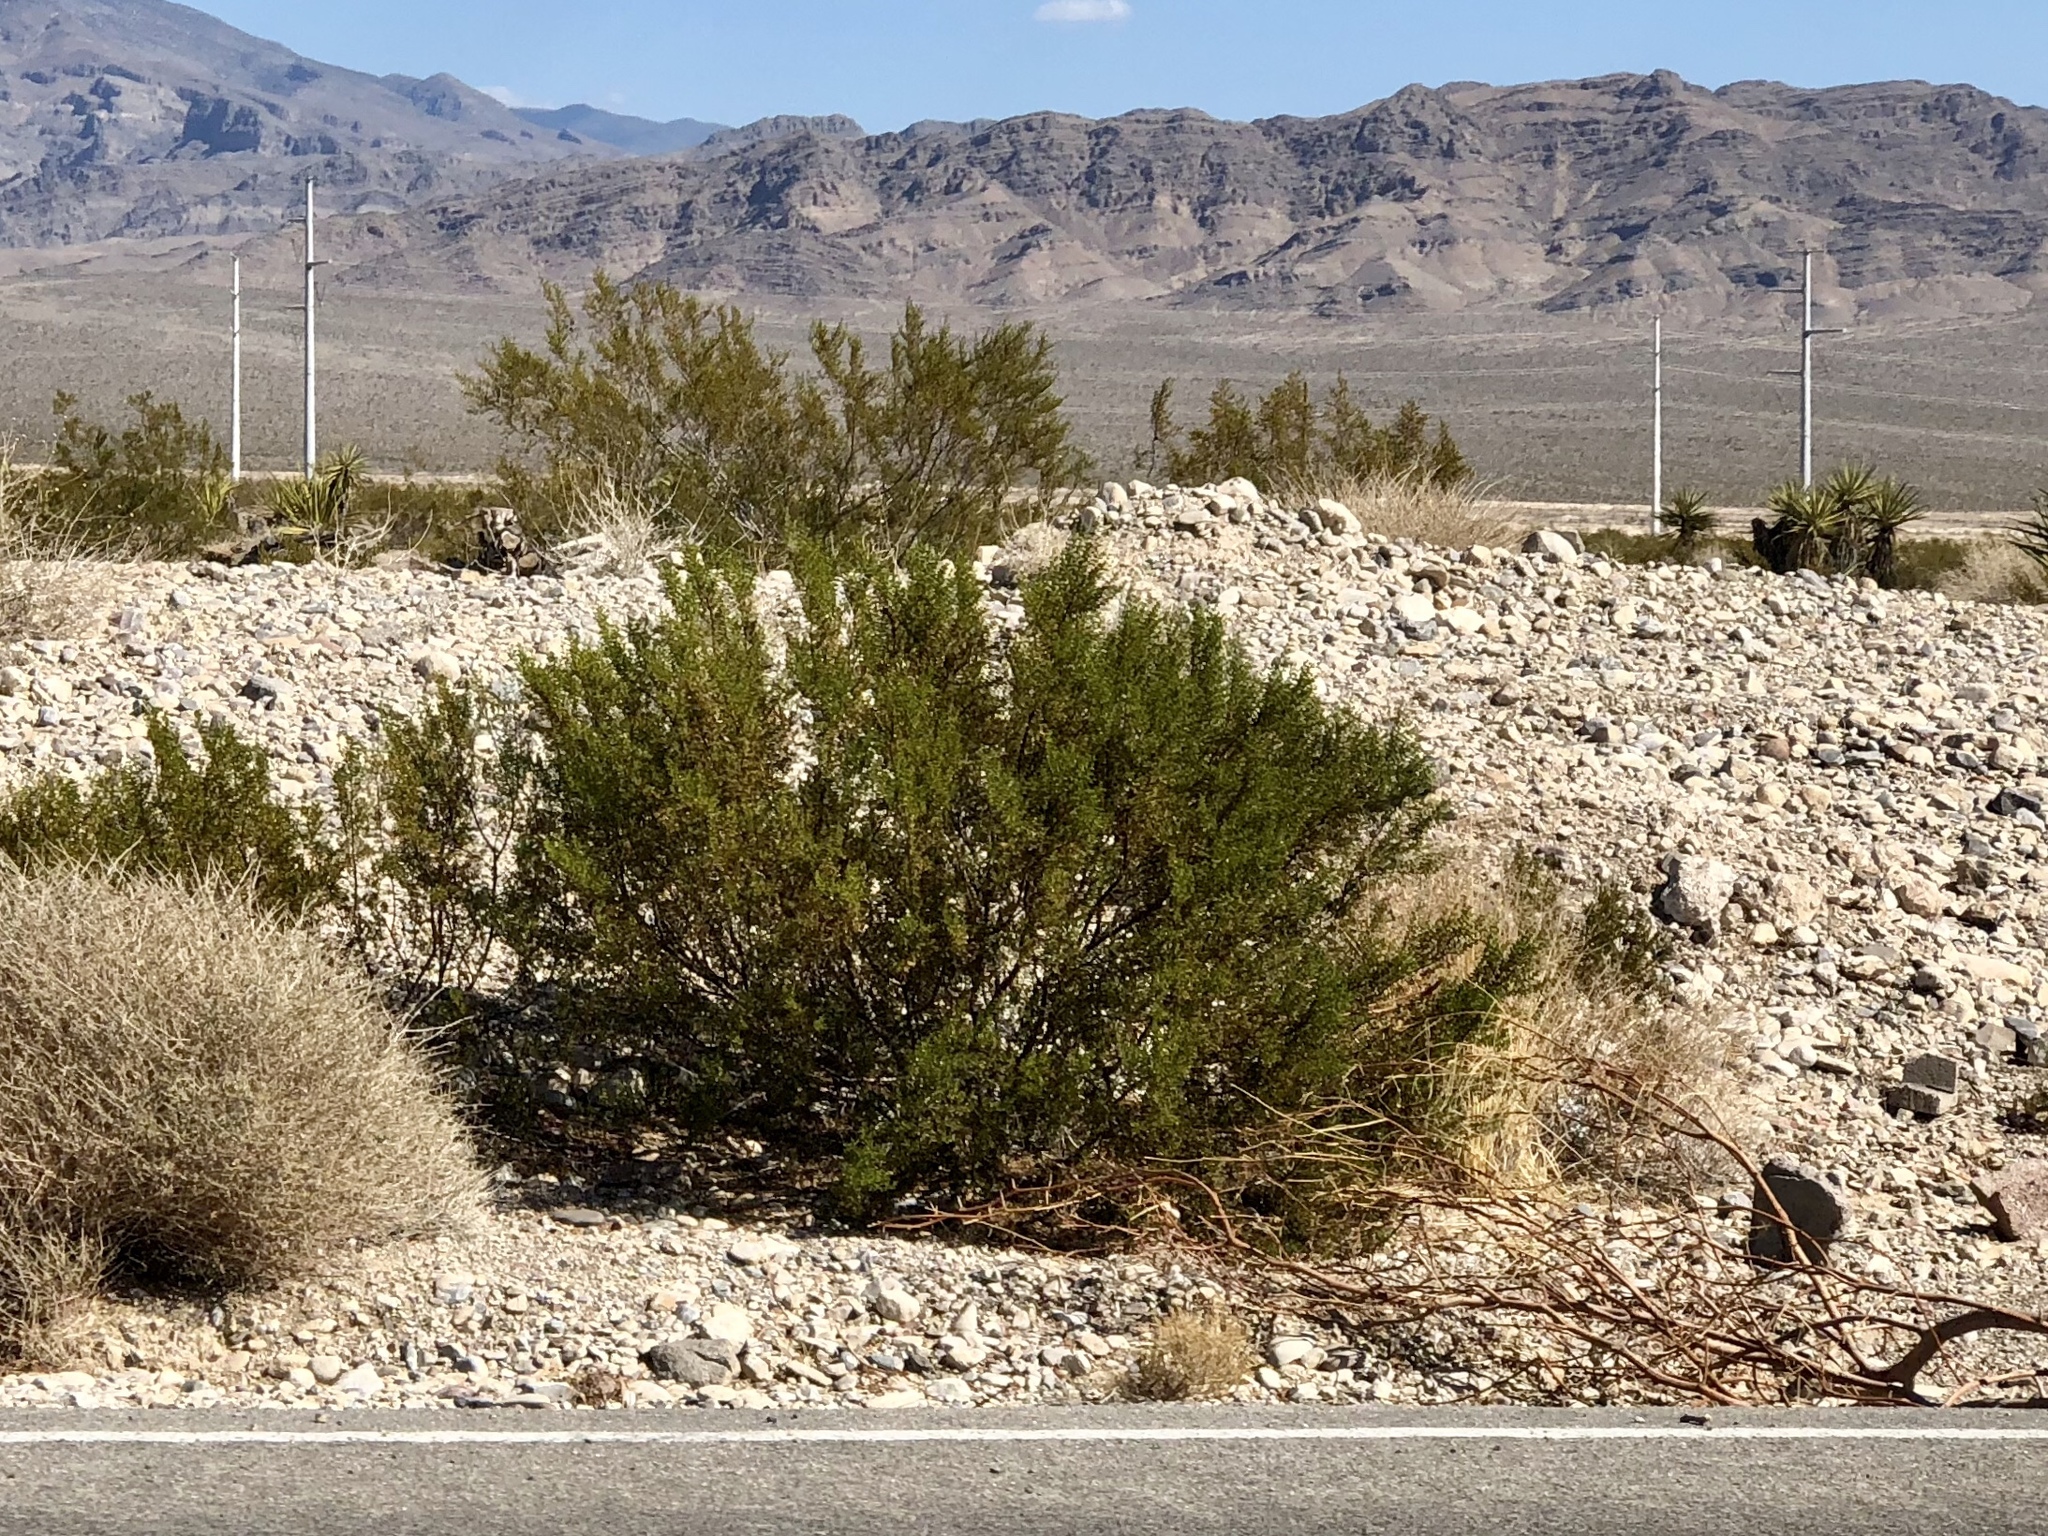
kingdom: Plantae
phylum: Tracheophyta
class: Magnoliopsida
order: Zygophyllales
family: Zygophyllaceae
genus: Larrea
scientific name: Larrea tridentata
